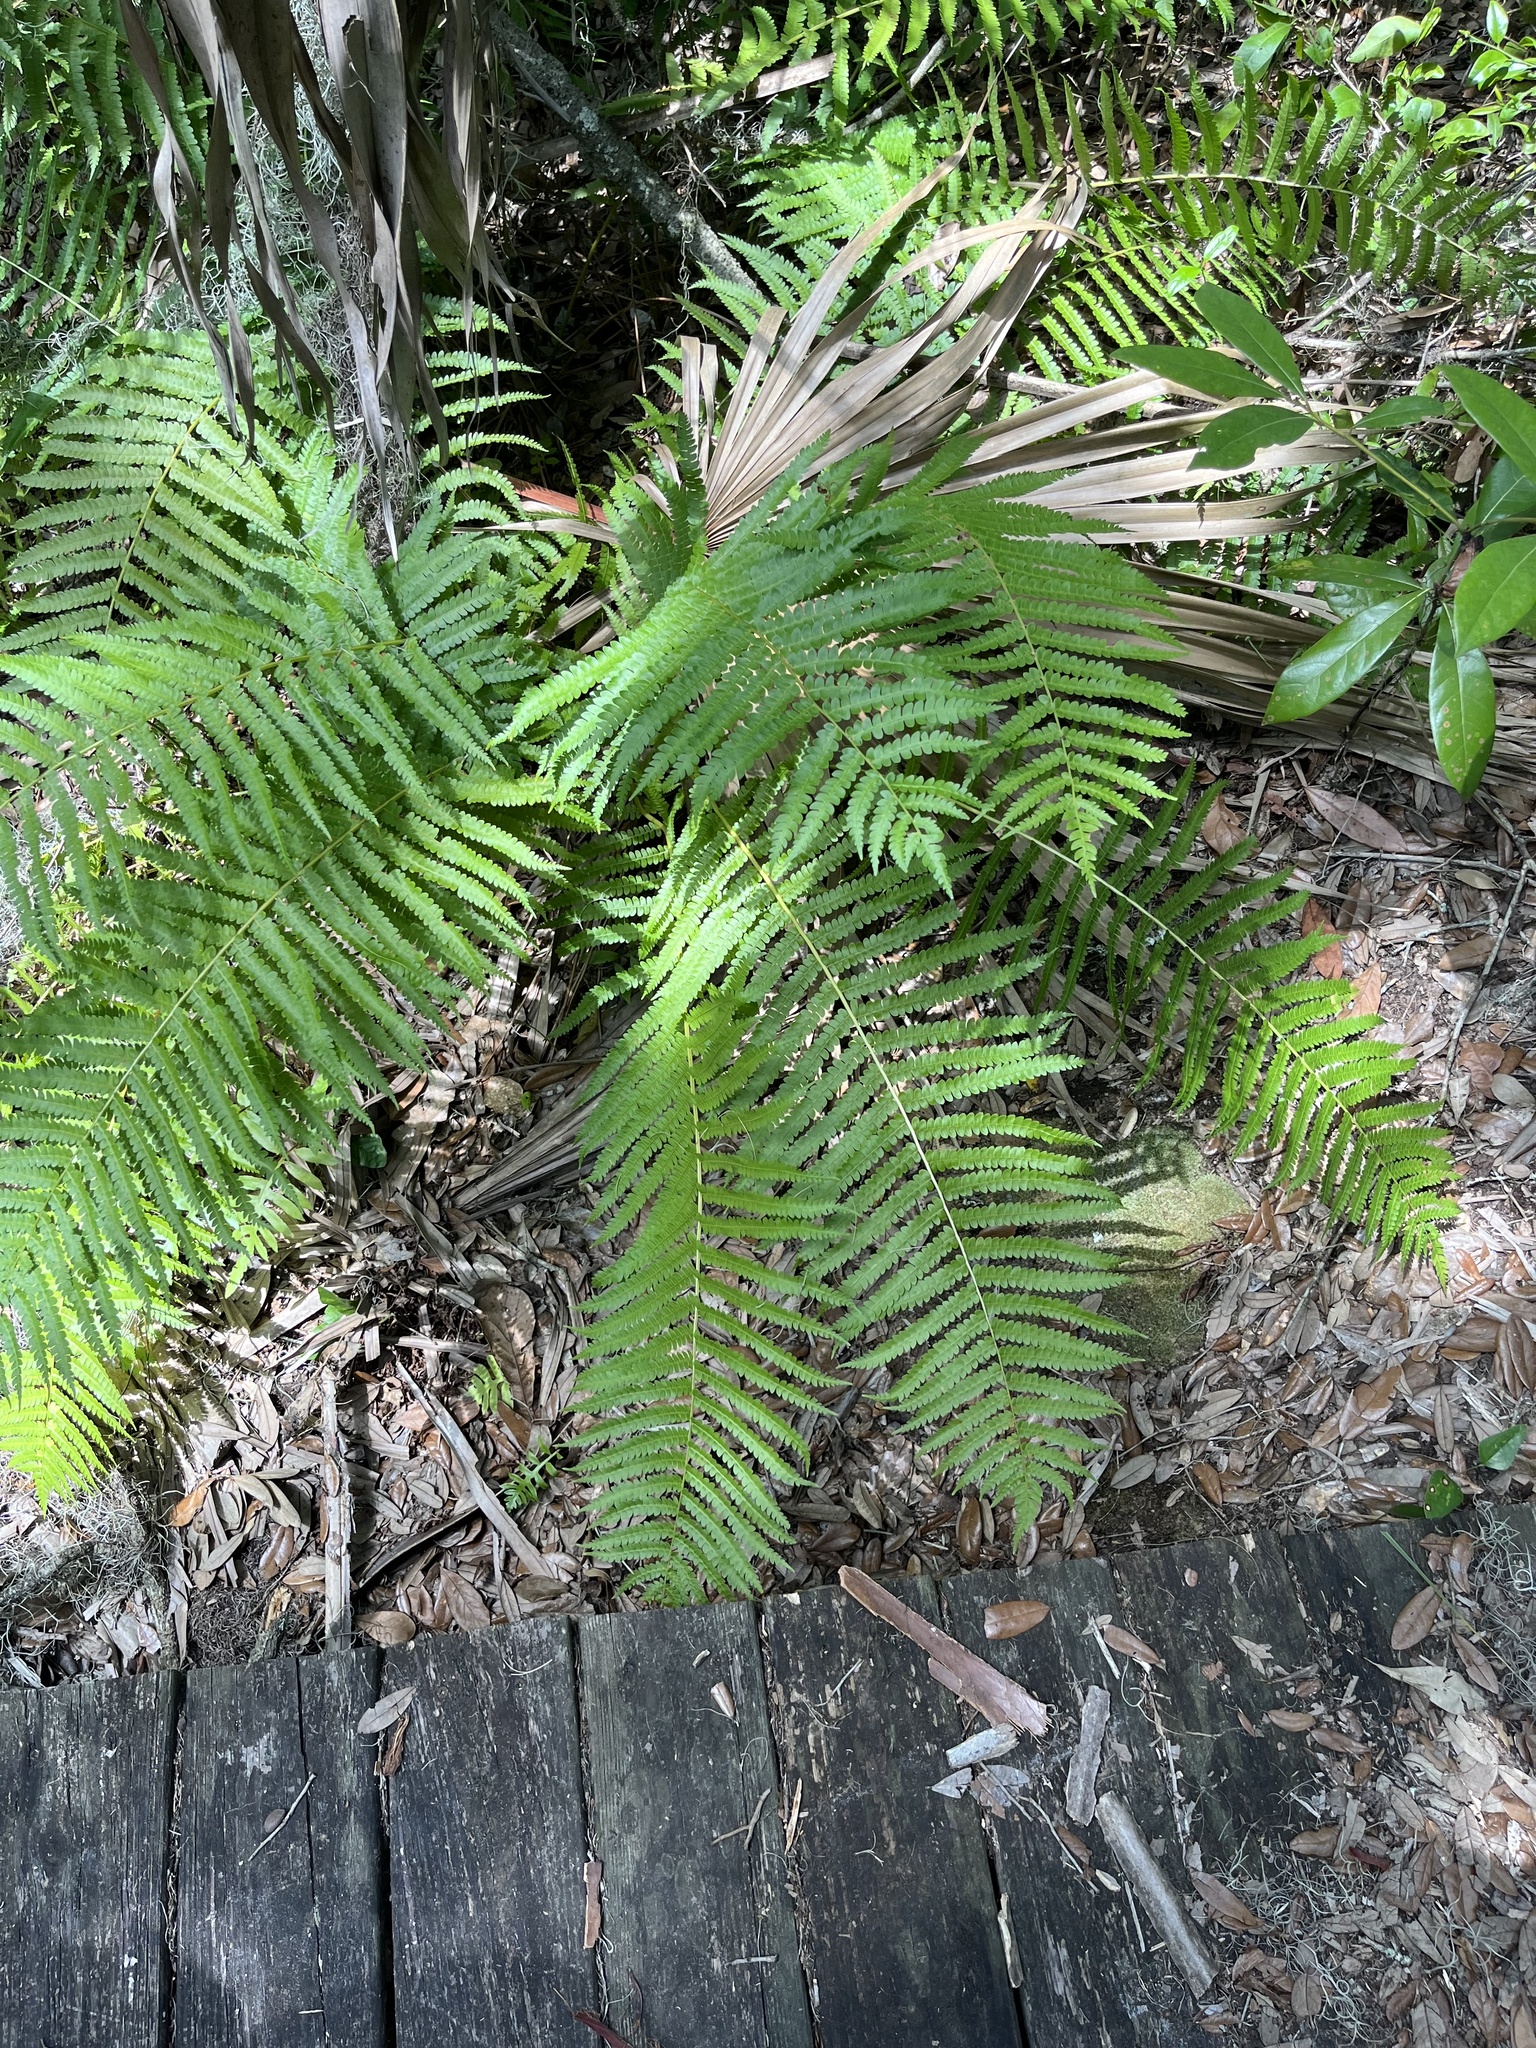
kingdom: Plantae
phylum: Tracheophyta
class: Polypodiopsida
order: Osmundales
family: Osmundaceae
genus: Osmundastrum
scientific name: Osmundastrum cinnamomeum
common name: Cinnamon fern
